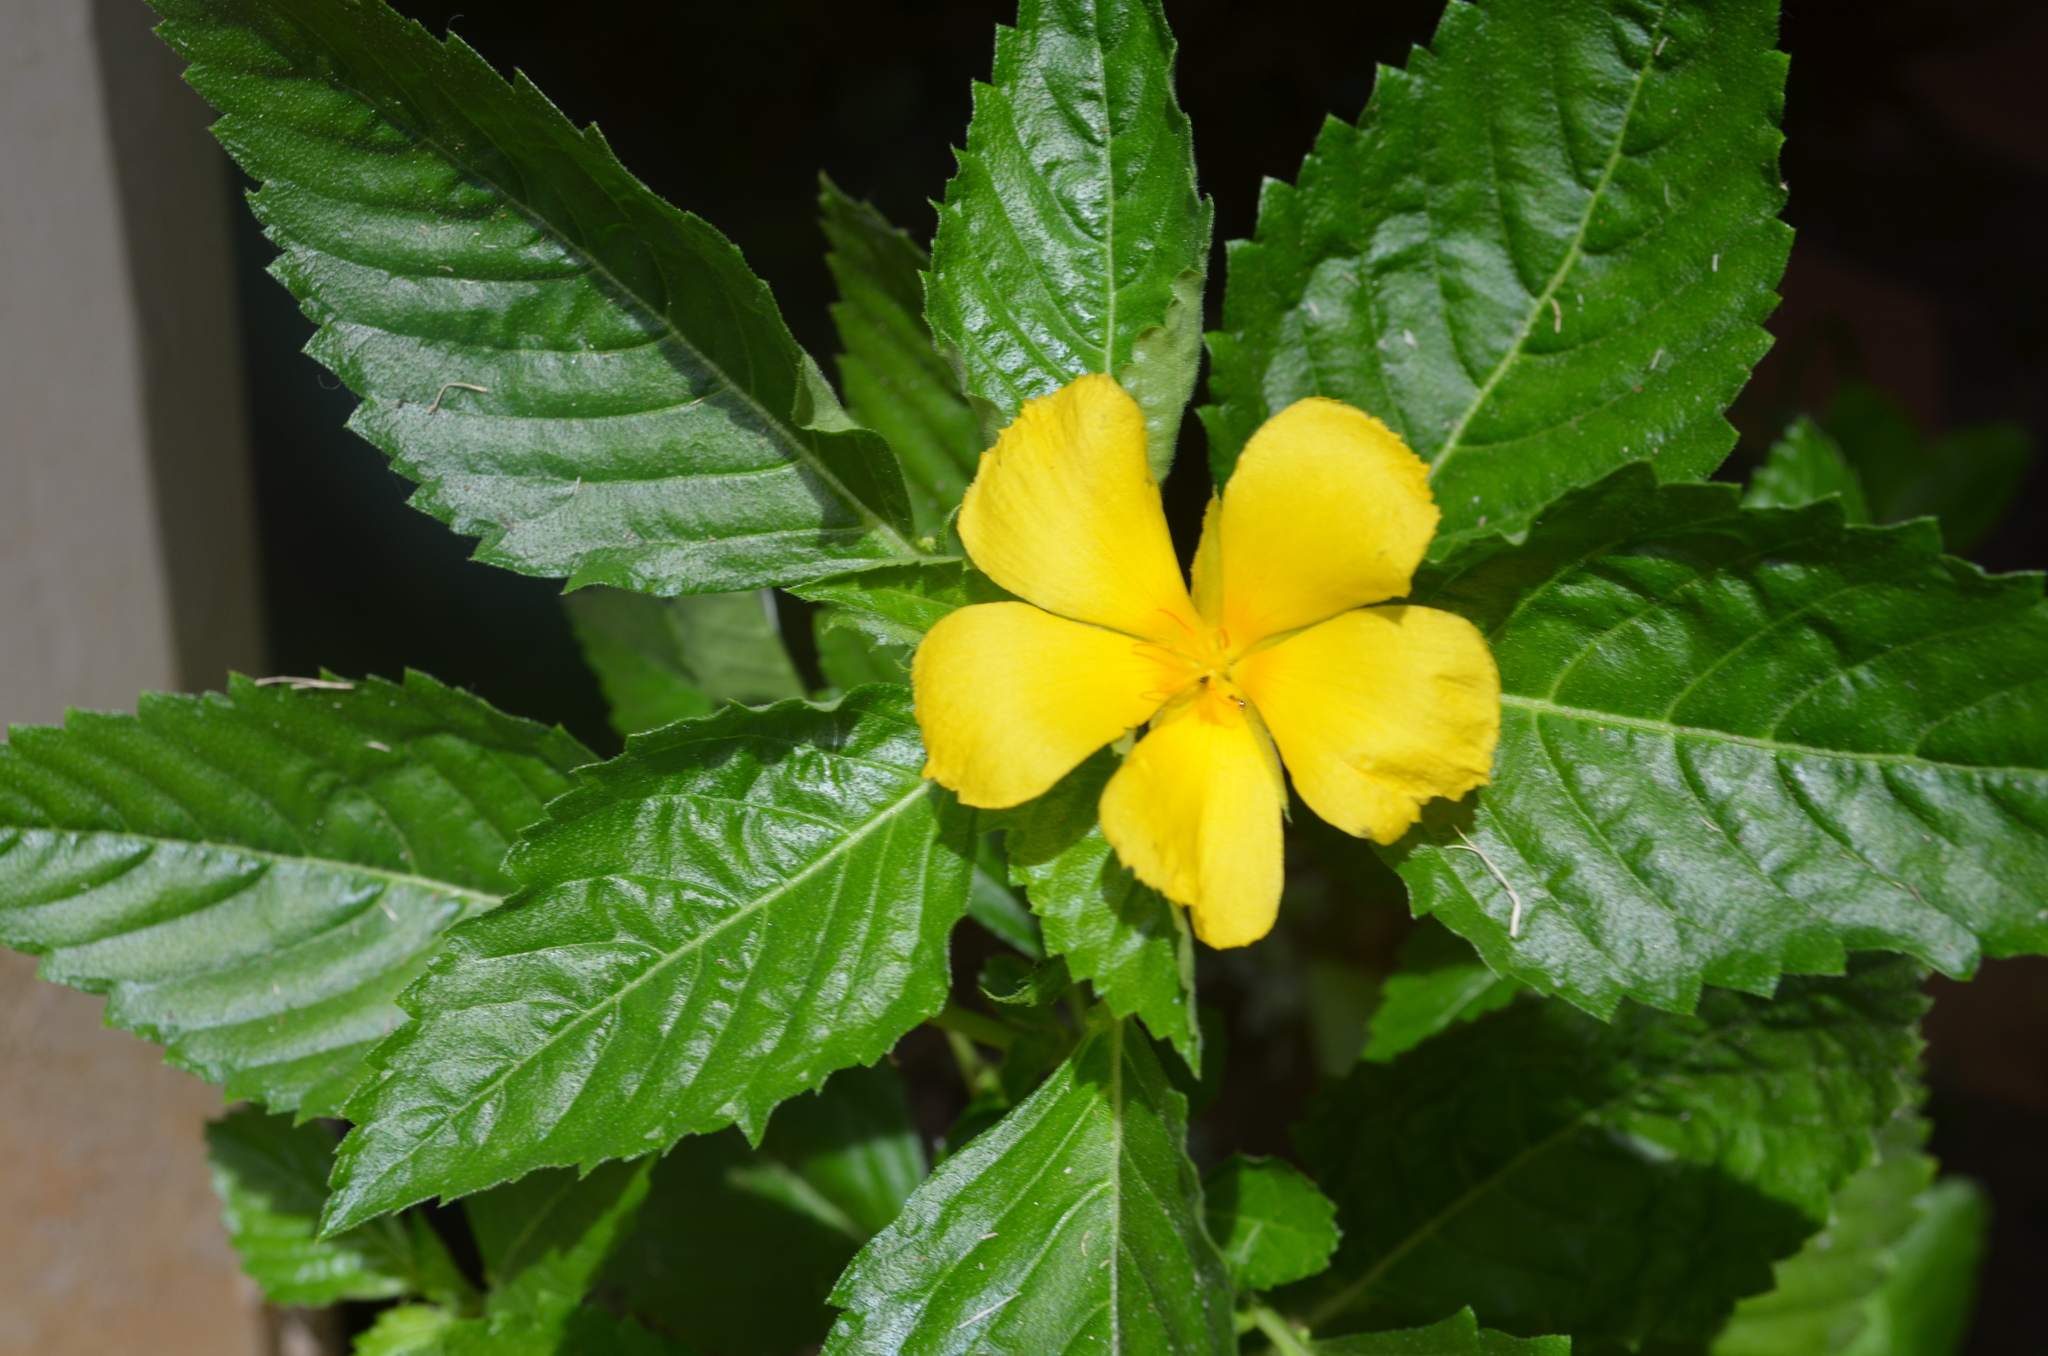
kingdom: Plantae
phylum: Tracheophyta
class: Magnoliopsida
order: Malpighiales
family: Turneraceae
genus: Turnera
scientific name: Turnera ulmifolia
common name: Ramgoat dashalong
